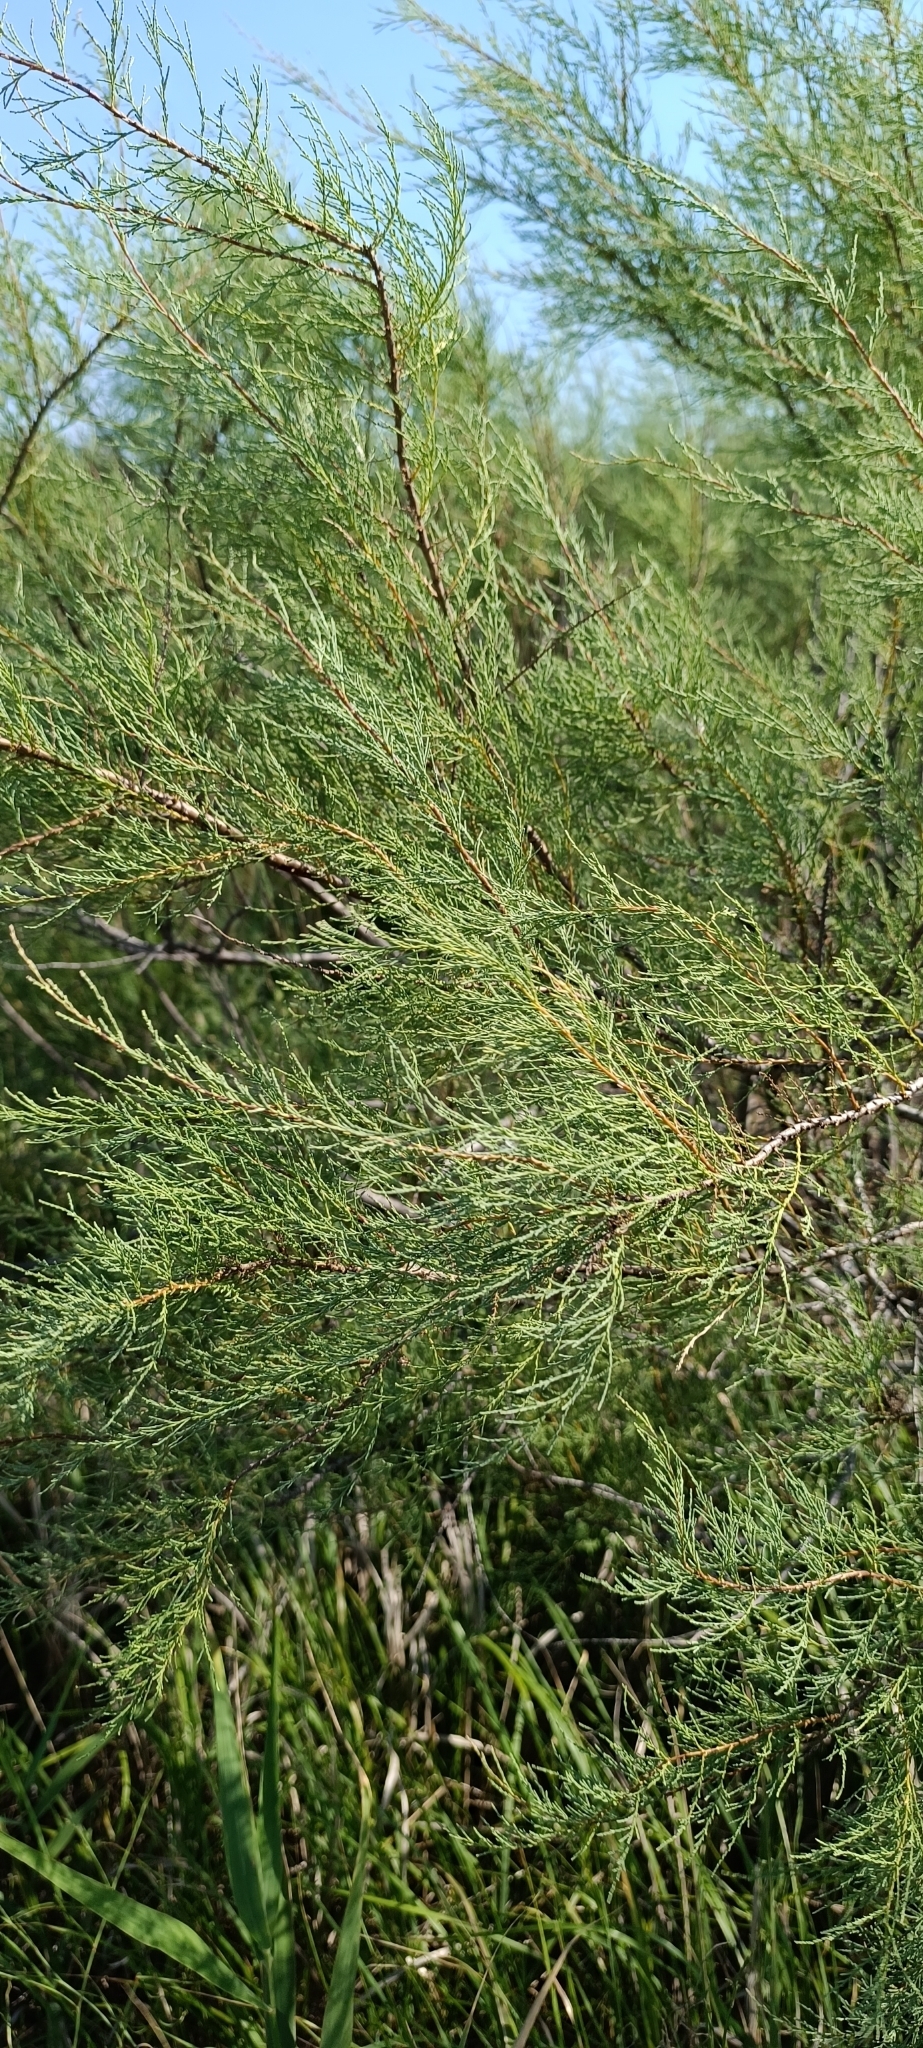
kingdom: Plantae
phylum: Tracheophyta
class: Magnoliopsida
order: Caryophyllales
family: Tamaricaceae
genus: Tamarix
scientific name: Tamarix ramosissima
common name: Pink tamarisk
